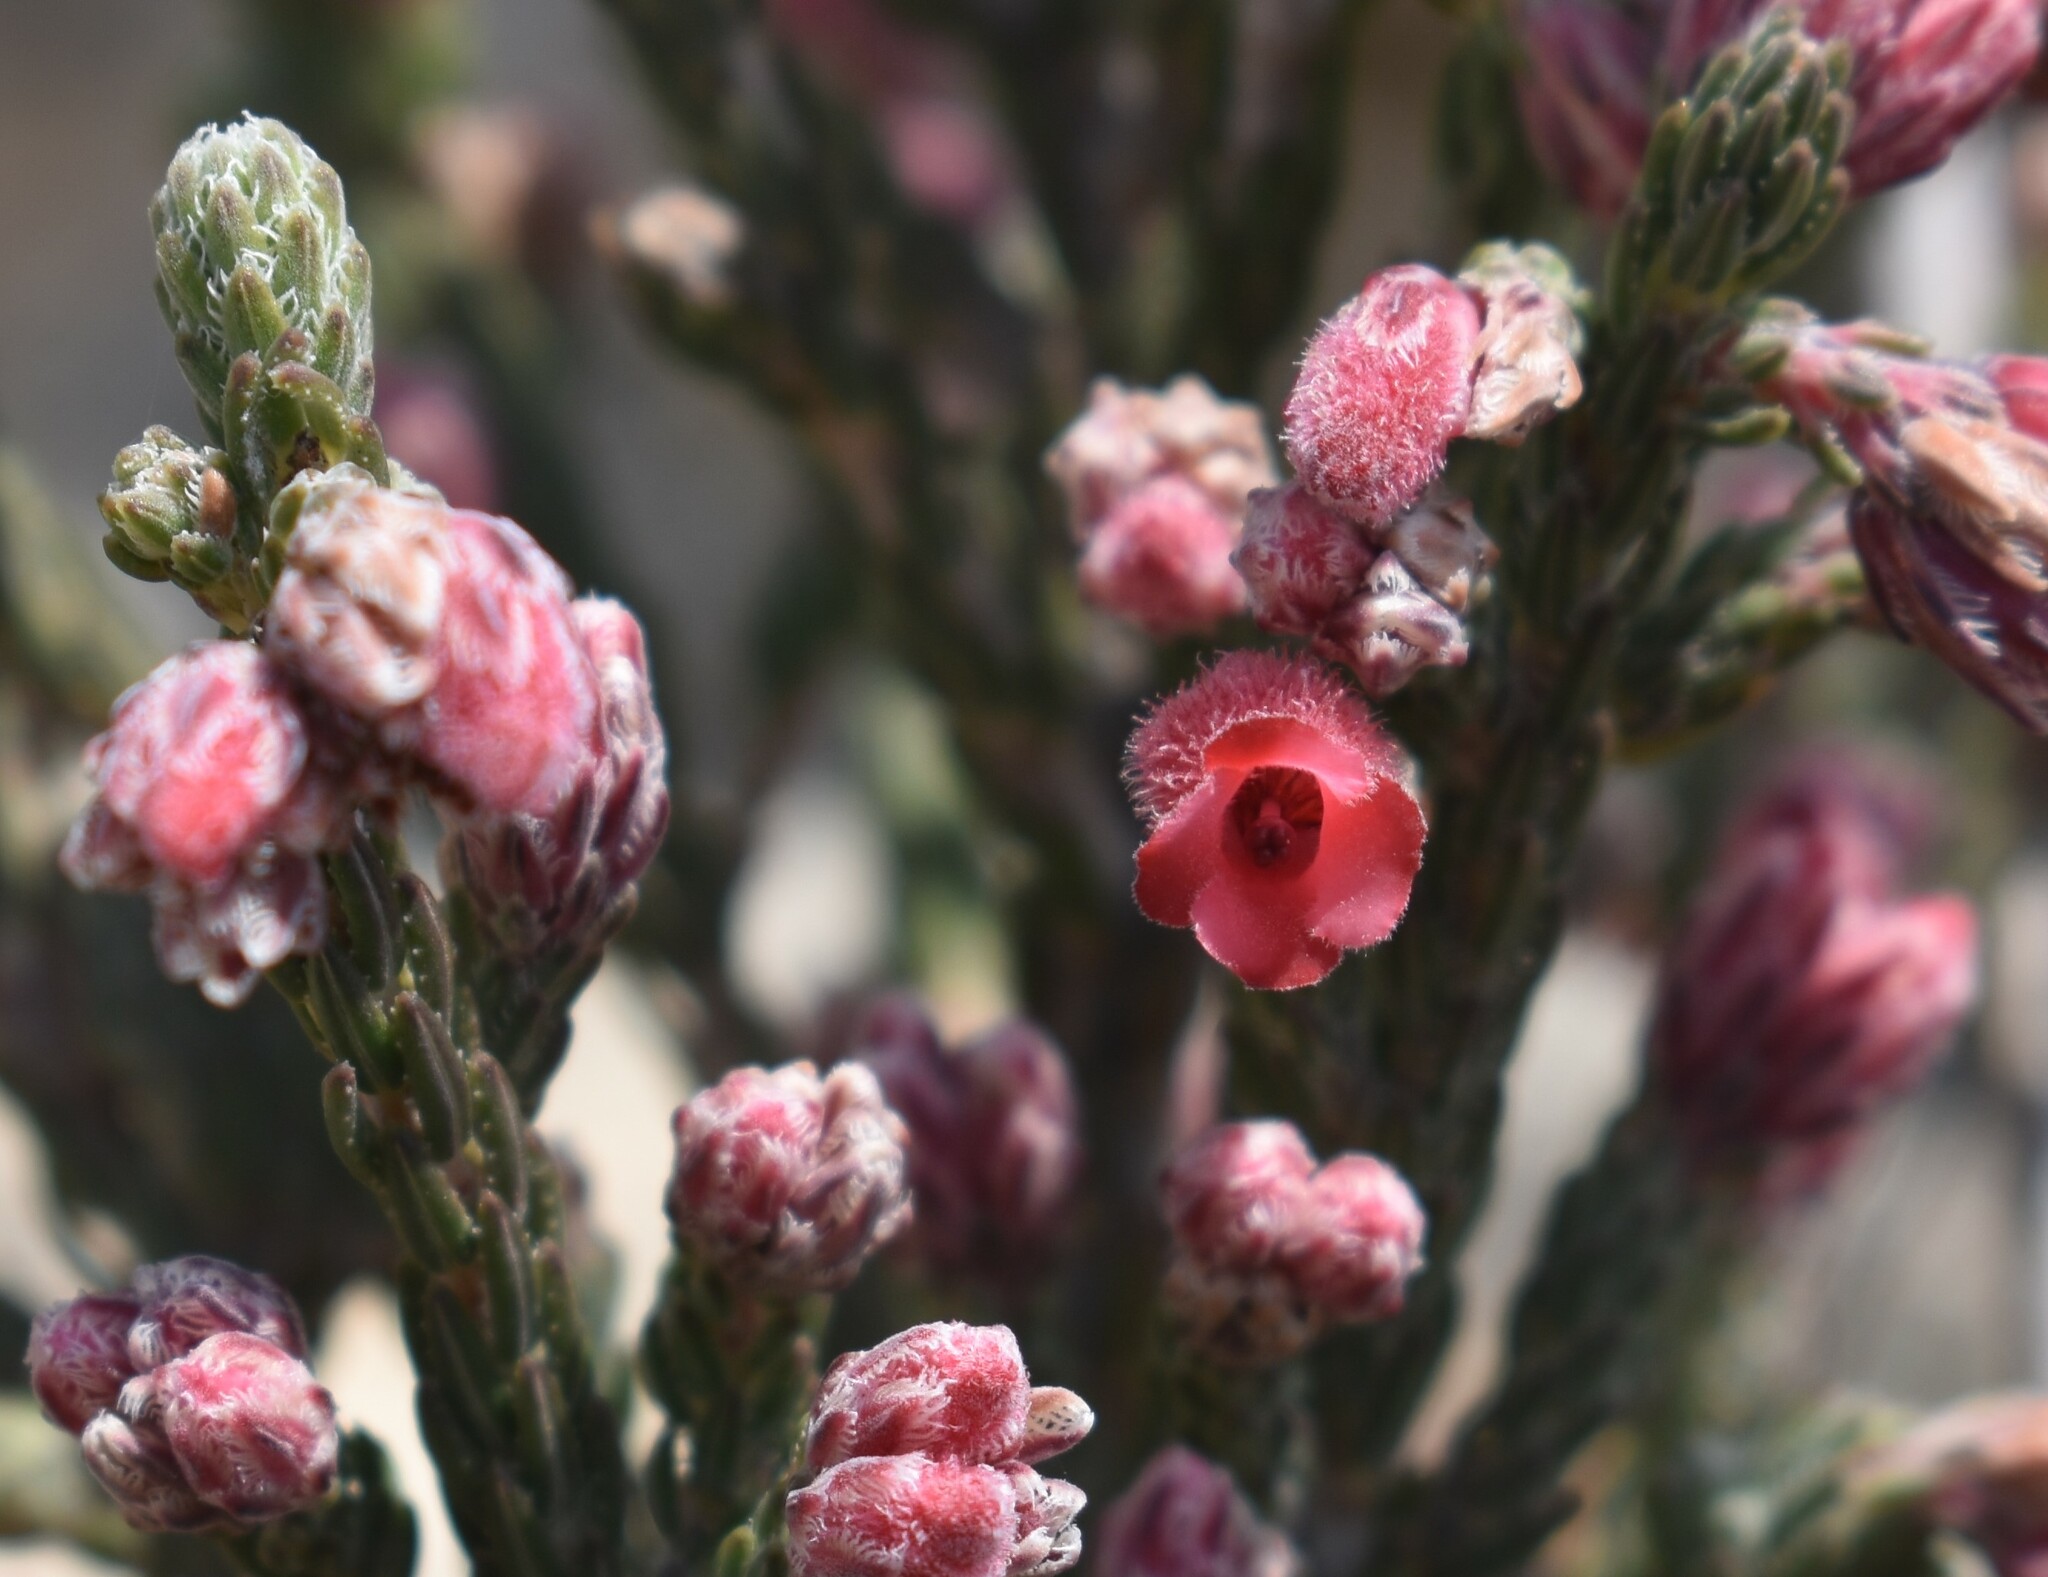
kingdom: Plantae
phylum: Tracheophyta
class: Magnoliopsida
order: Ericales
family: Ericaceae
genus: Erica
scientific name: Erica strigilifolia
